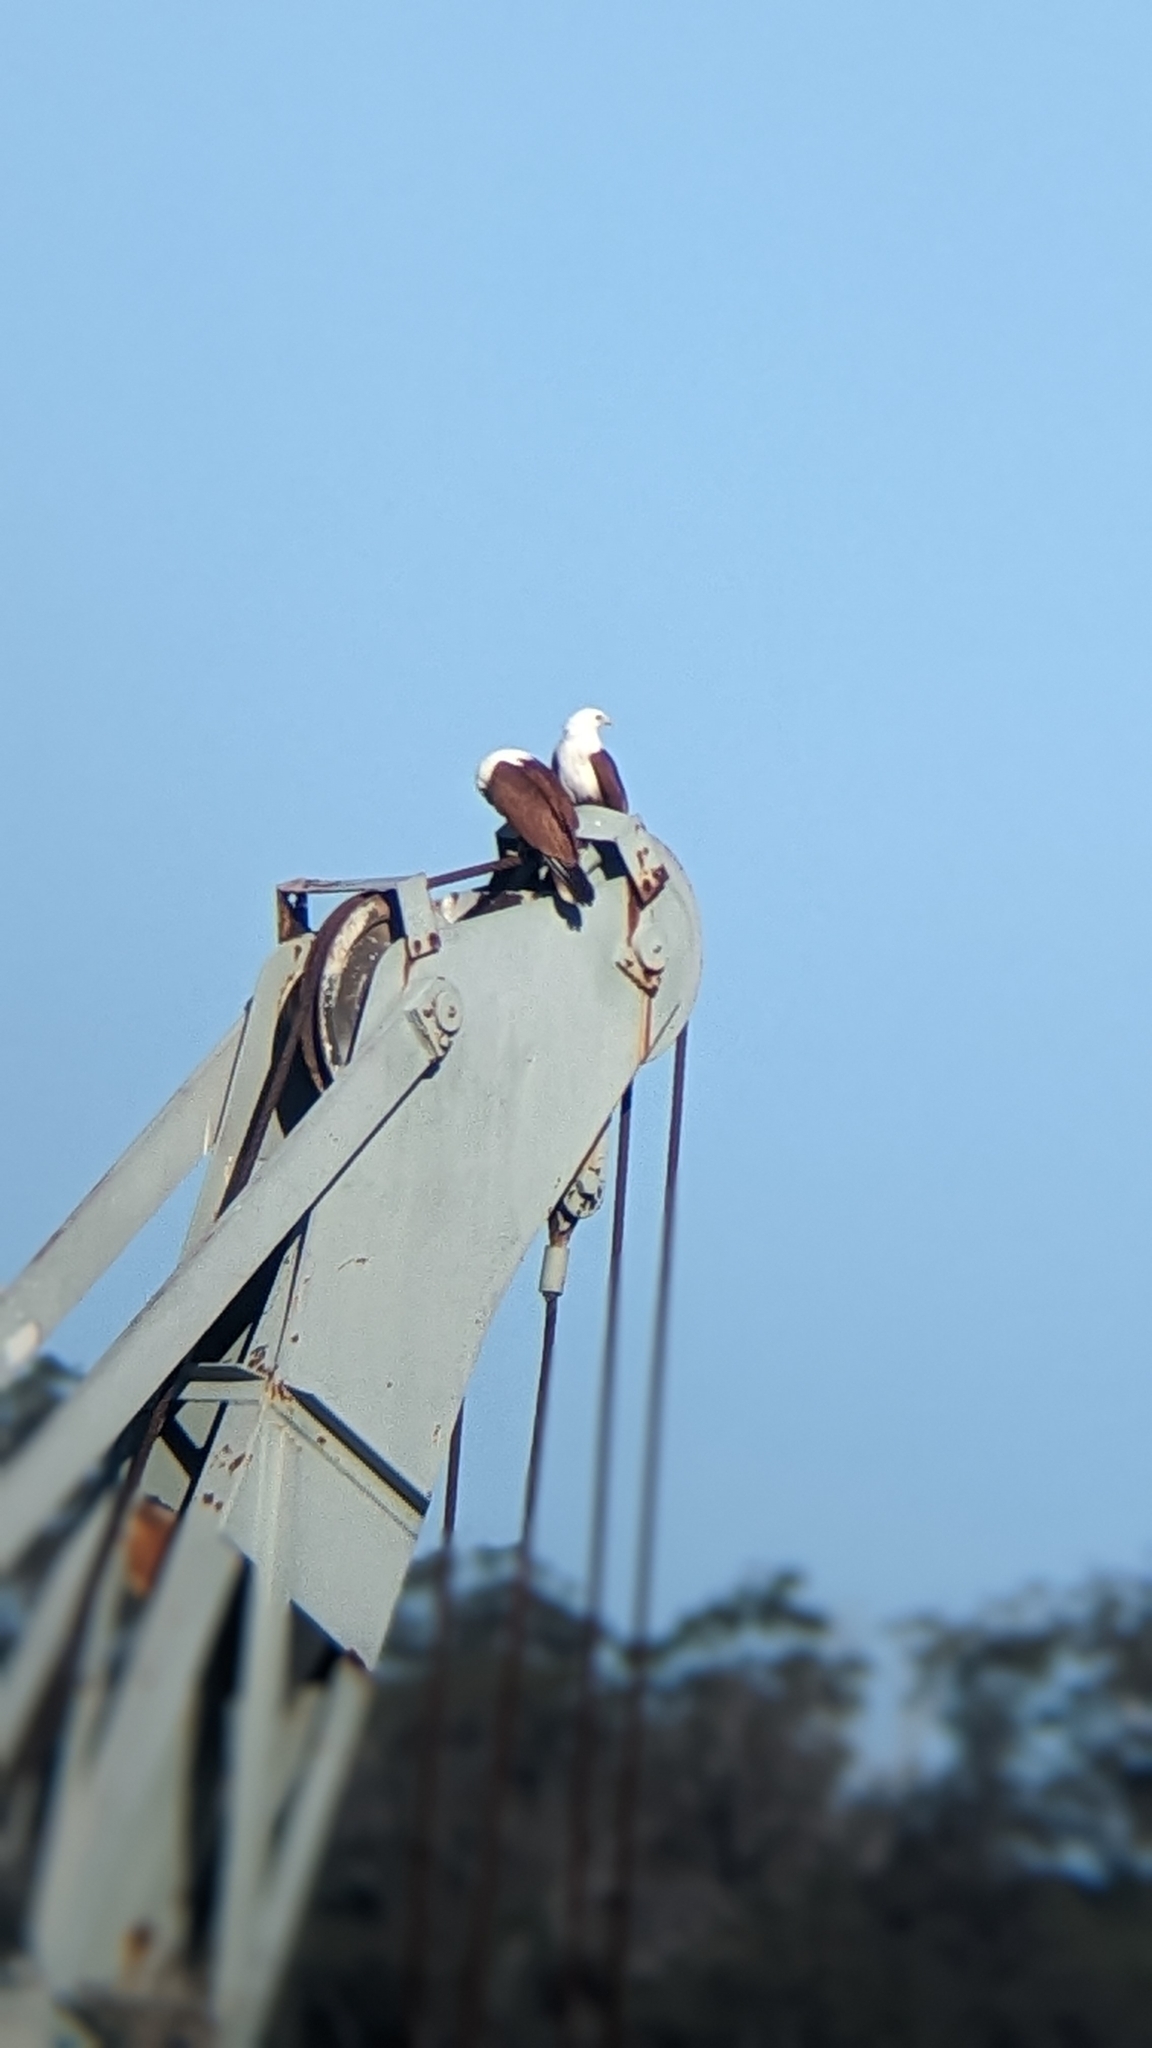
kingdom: Animalia
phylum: Chordata
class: Aves
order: Accipitriformes
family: Accipitridae
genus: Haliastur
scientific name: Haliastur indus
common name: Brahminy kite
